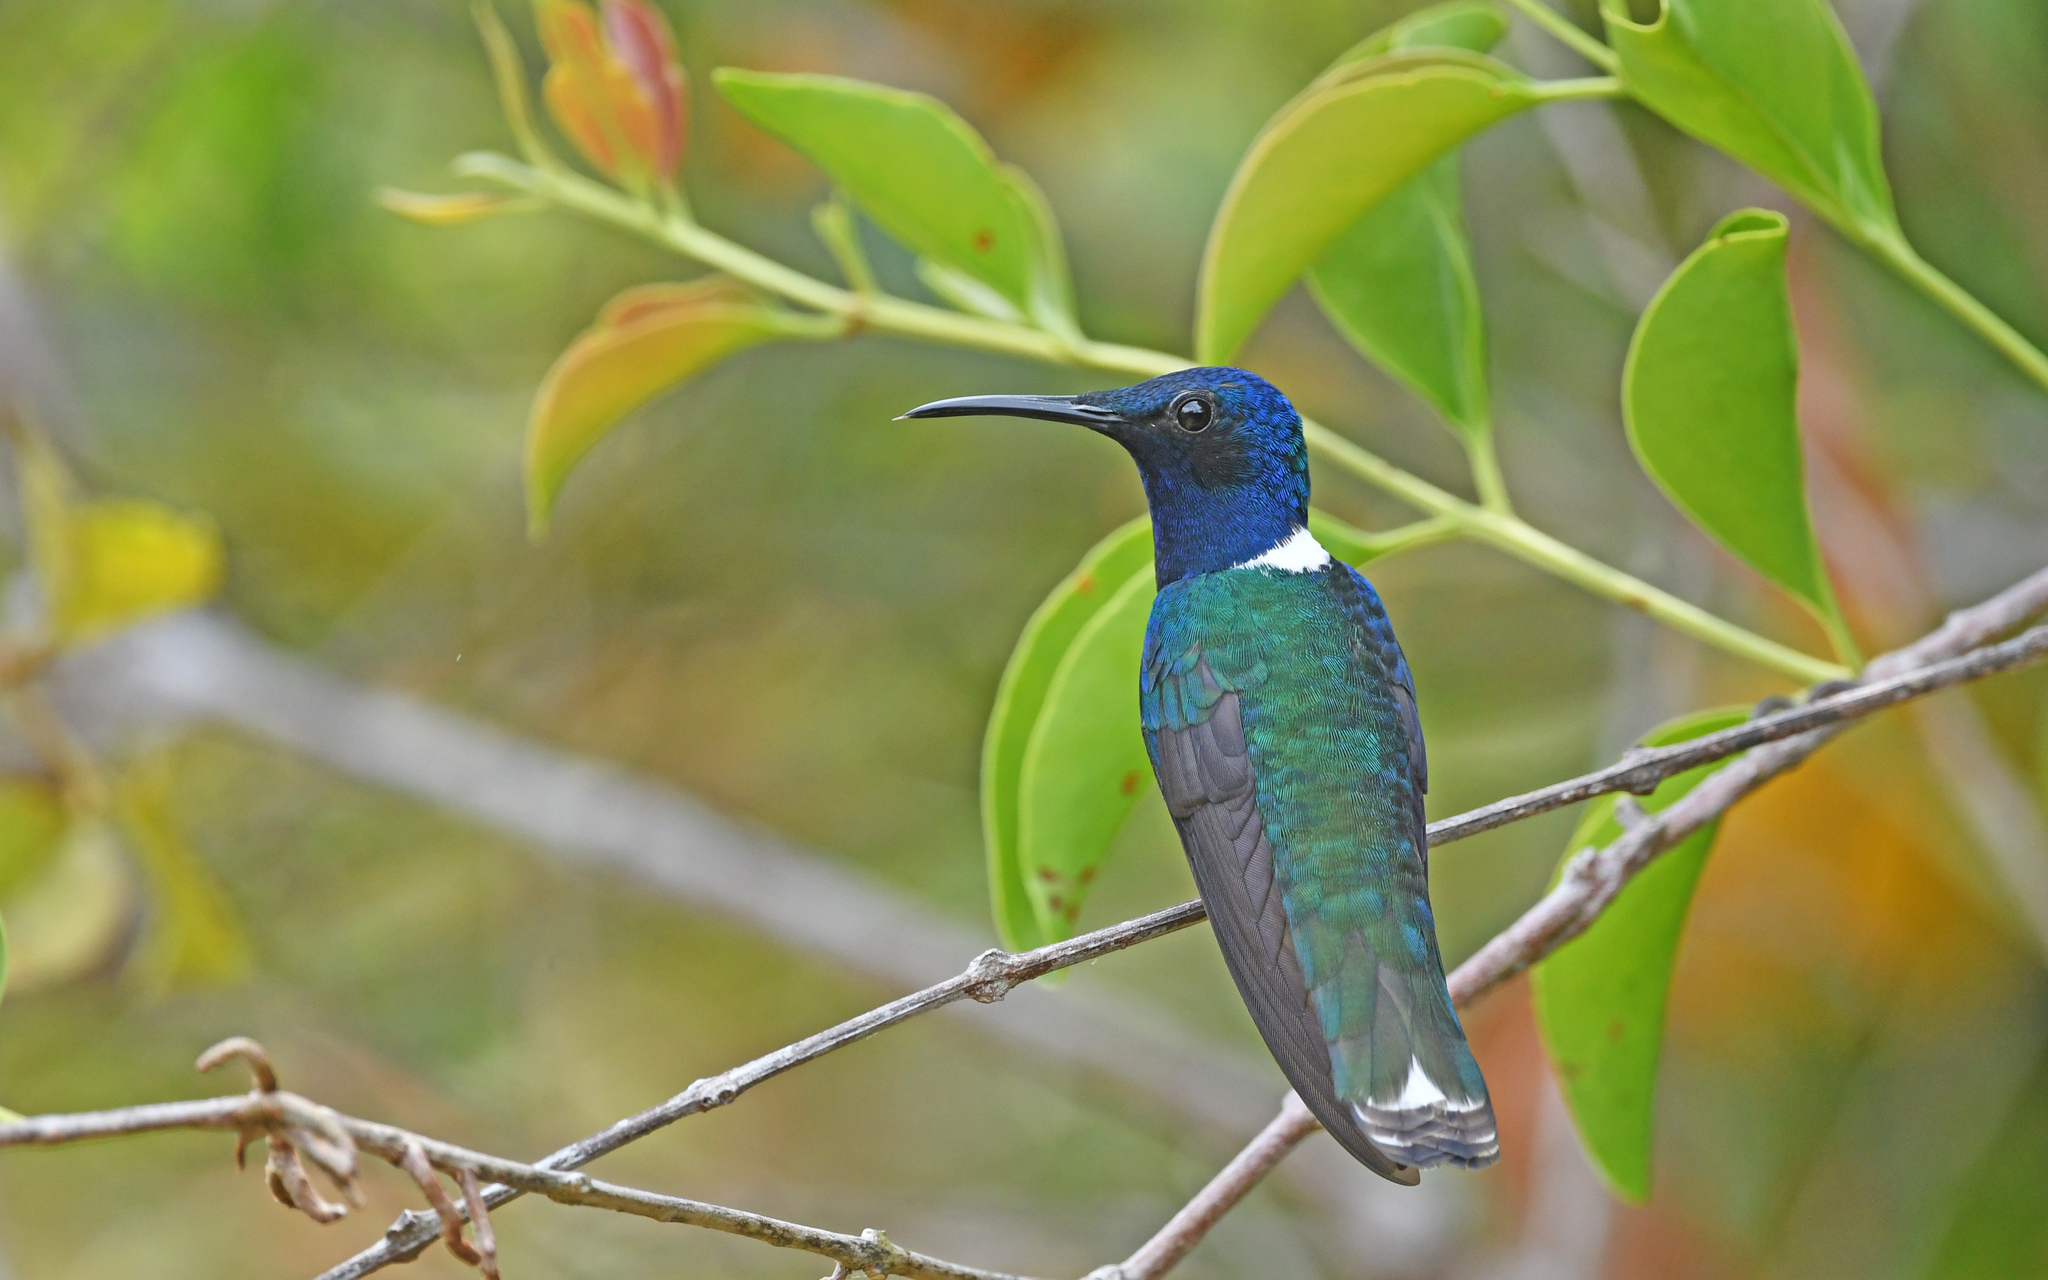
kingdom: Animalia
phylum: Chordata
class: Aves
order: Apodiformes
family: Trochilidae
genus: Florisuga
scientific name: Florisuga mellivora
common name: White-necked jacobin
